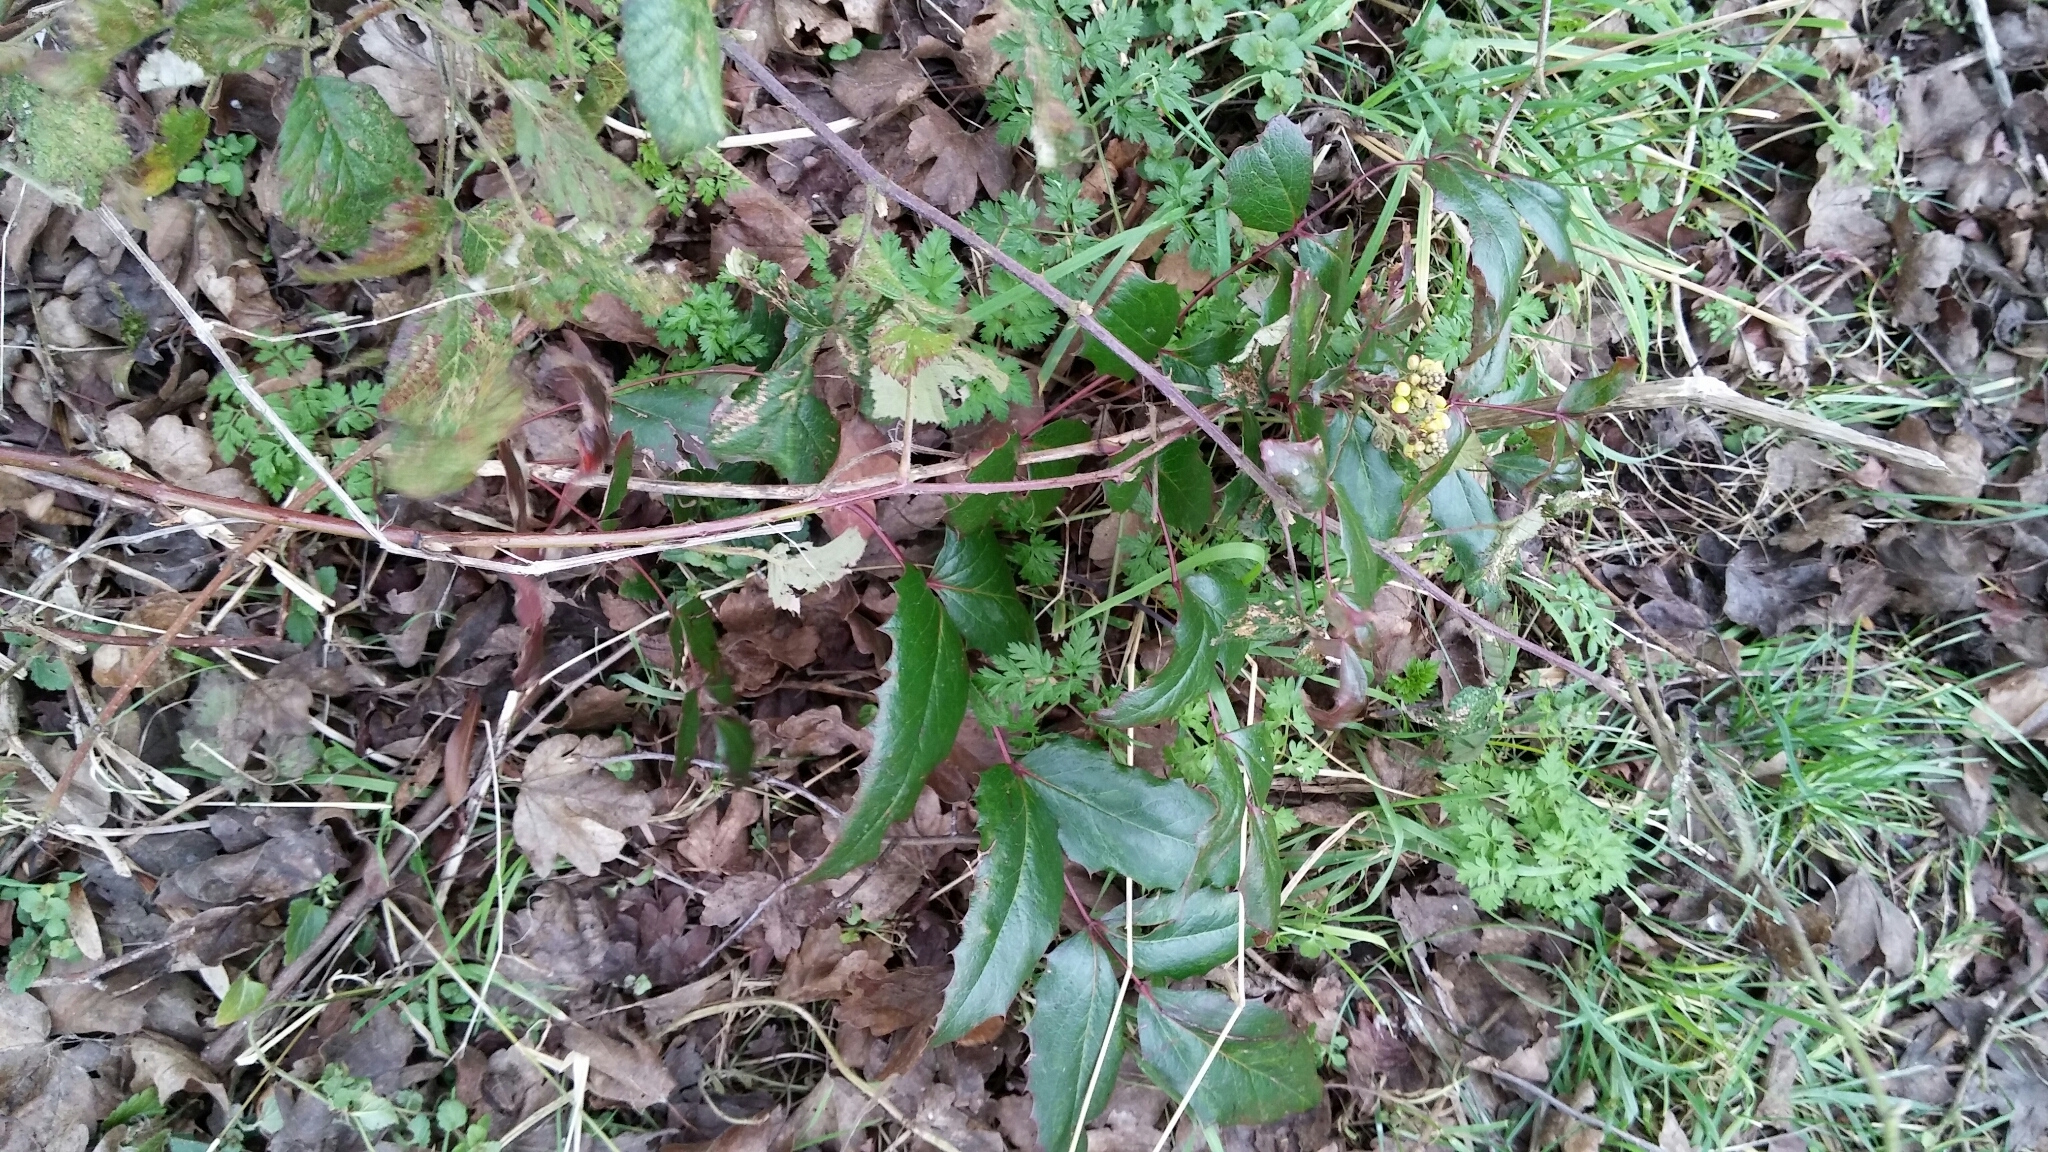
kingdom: Plantae
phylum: Tracheophyta
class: Magnoliopsida
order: Ranunculales
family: Berberidaceae
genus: Mahonia
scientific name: Mahonia aquifolium
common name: Oregon-grape
